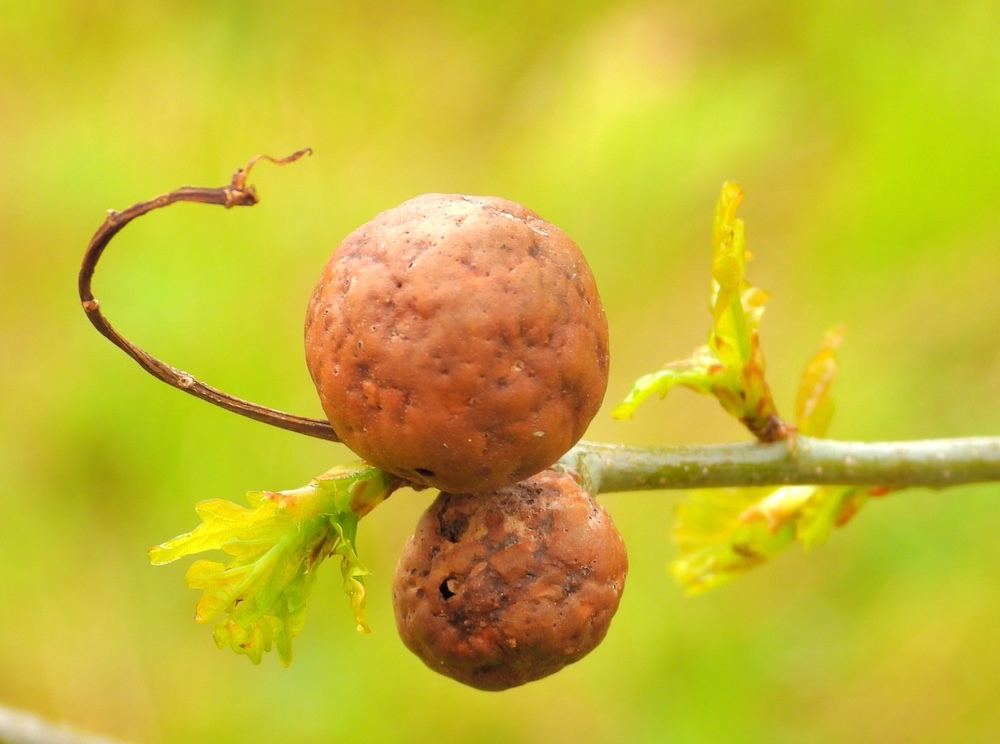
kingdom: Animalia
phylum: Arthropoda
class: Insecta
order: Hymenoptera
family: Cynipidae
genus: Andricus
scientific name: Andricus kollari
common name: Marble gall
